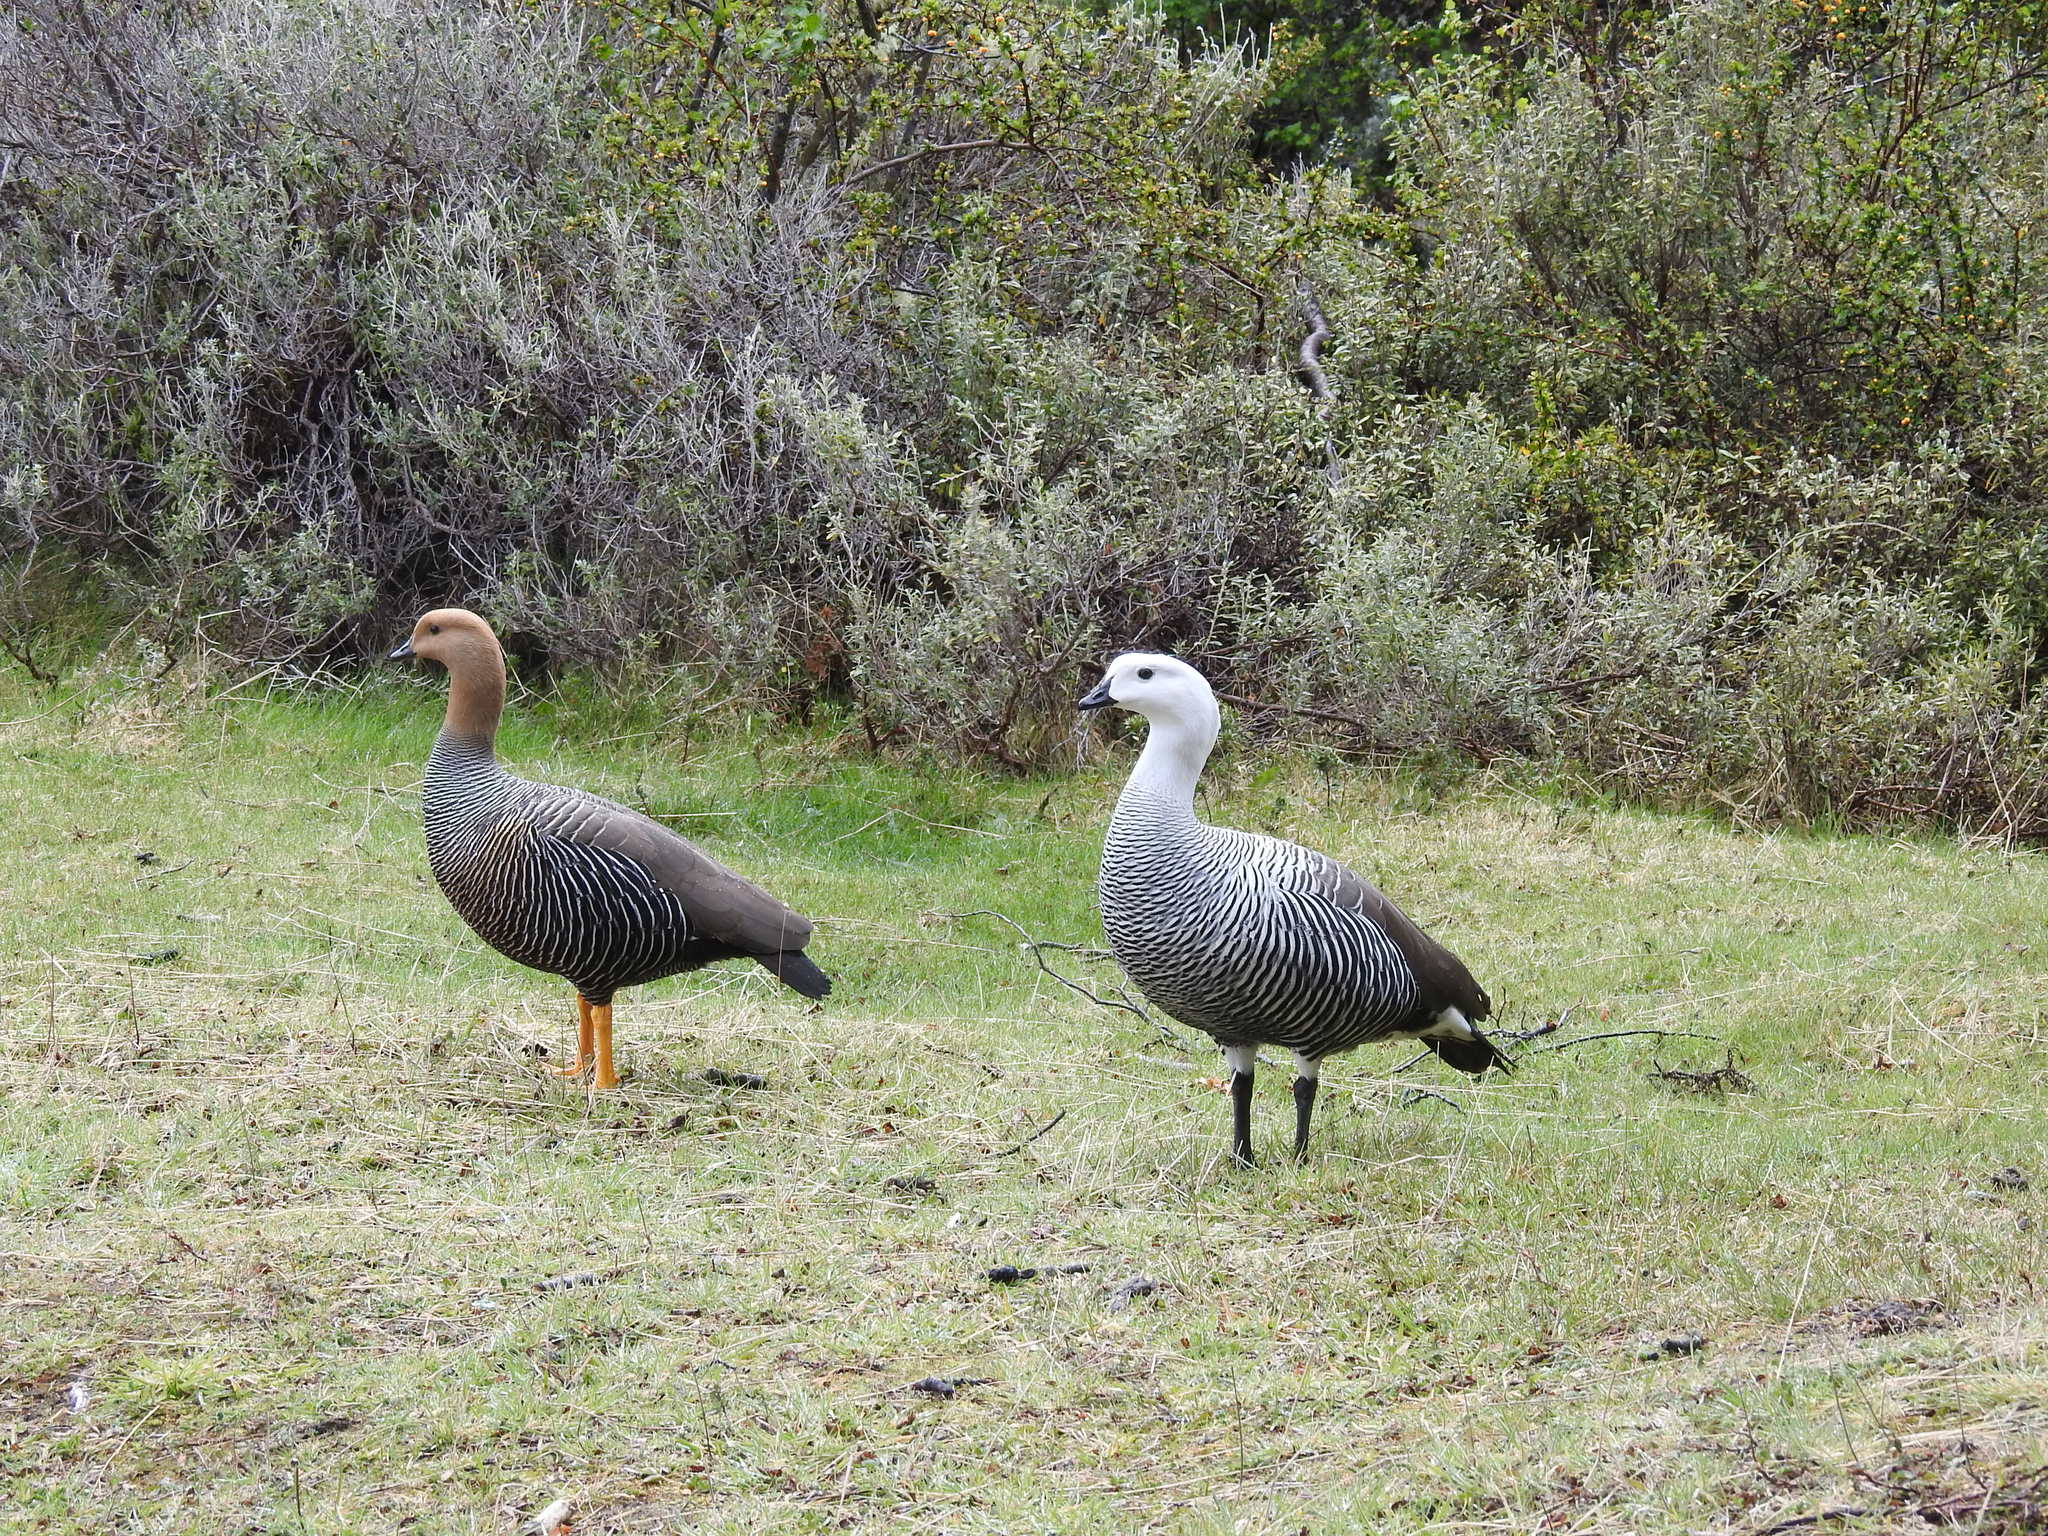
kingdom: Animalia
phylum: Chordata
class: Aves
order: Anseriformes
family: Anatidae
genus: Chloephaga
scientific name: Chloephaga picta
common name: Upland goose
